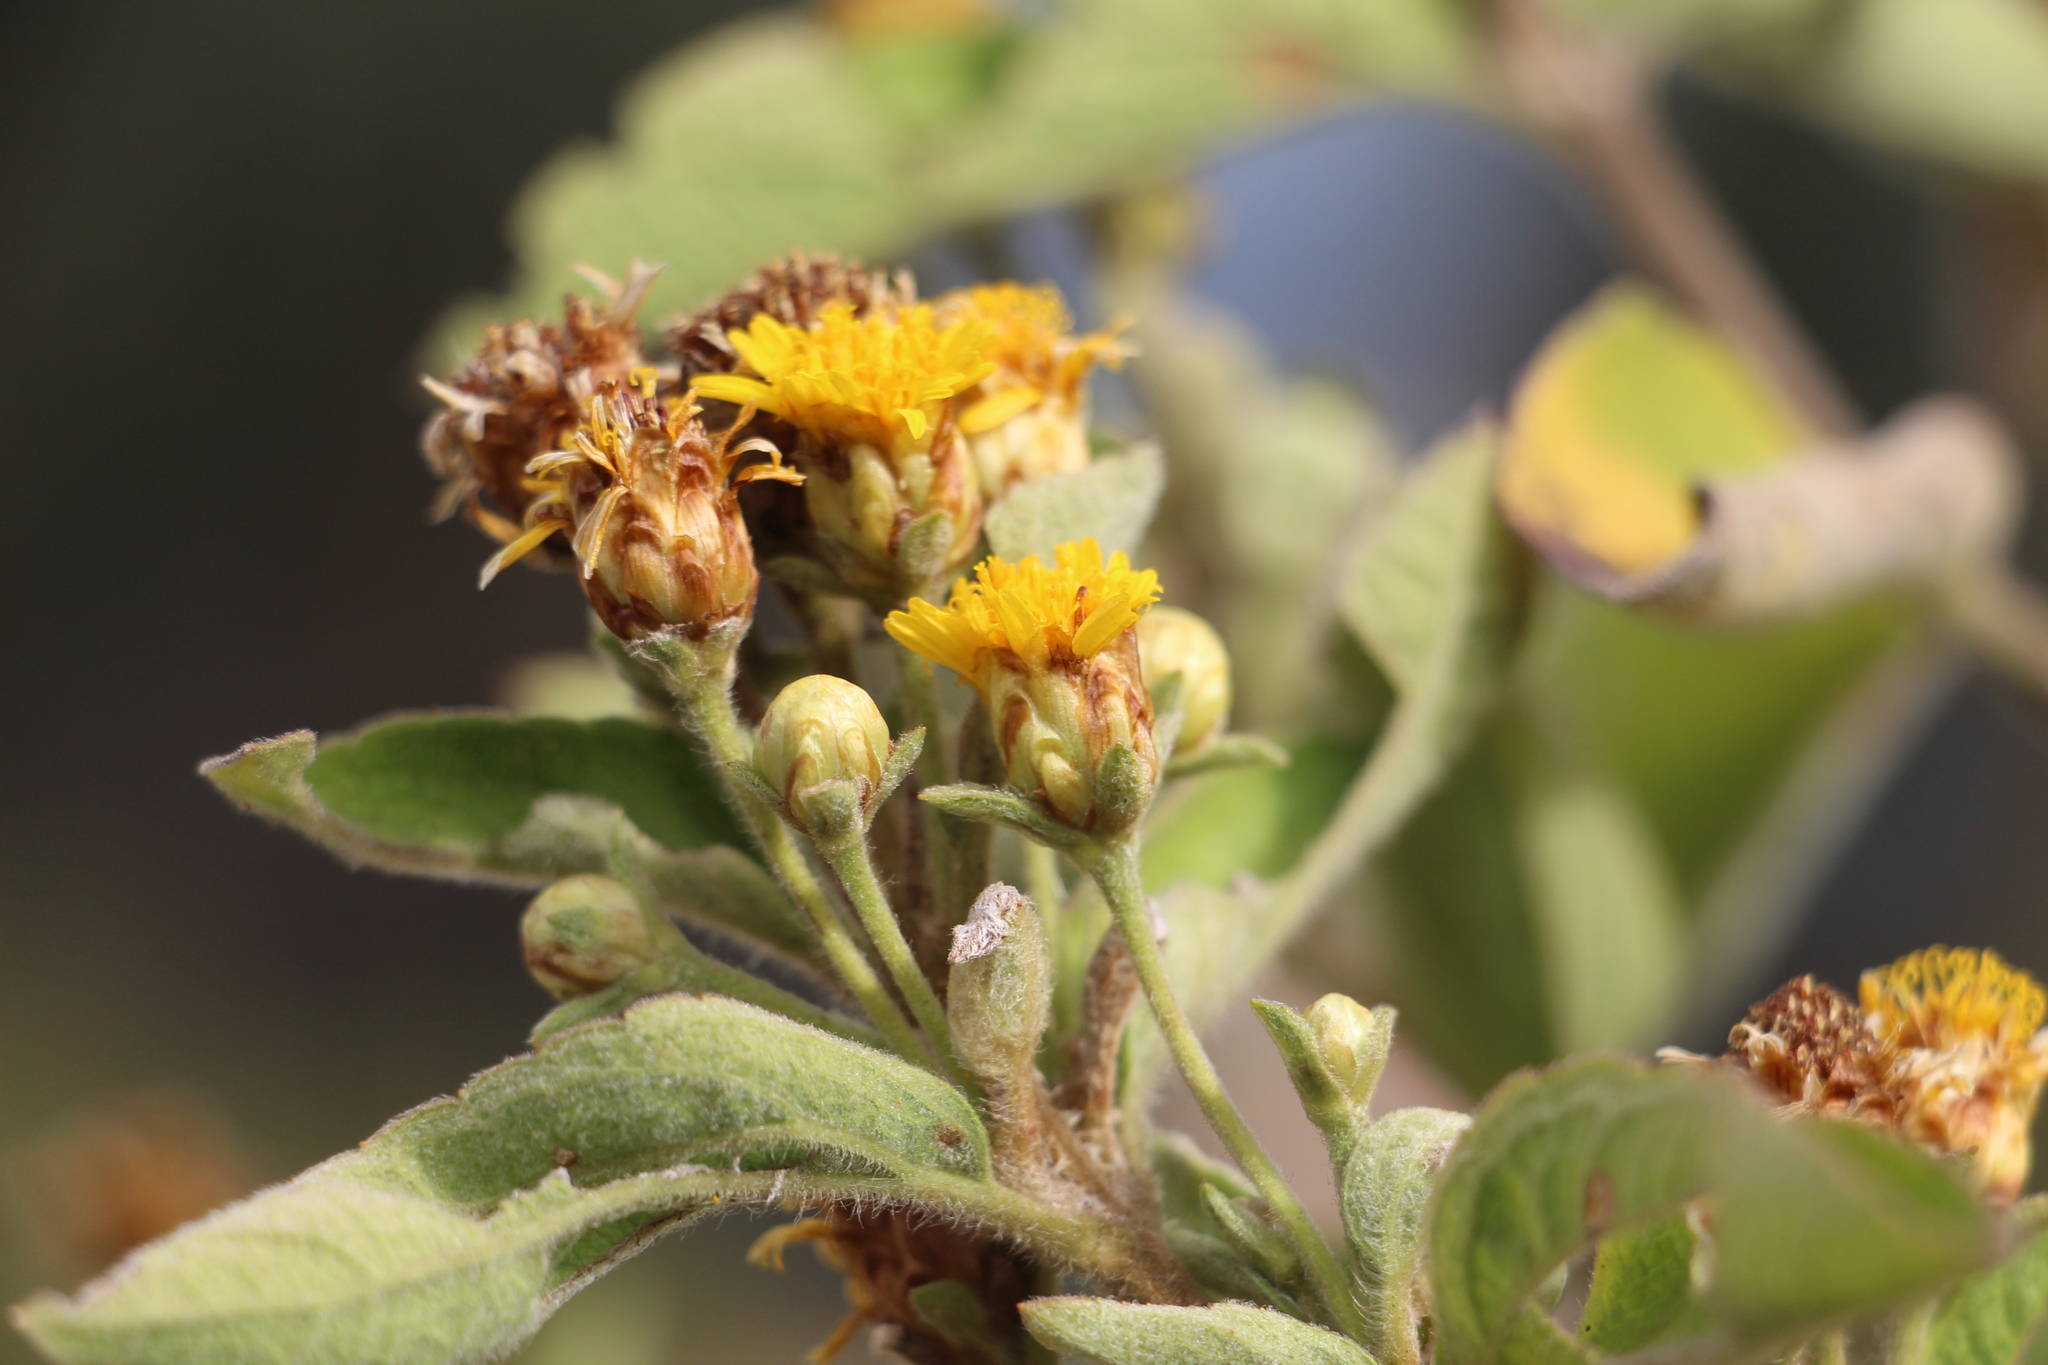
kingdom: Plantae
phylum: Tracheophyta
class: Magnoliopsida
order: Asterales
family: Asteraceae
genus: Calea
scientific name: Calea berteroana
